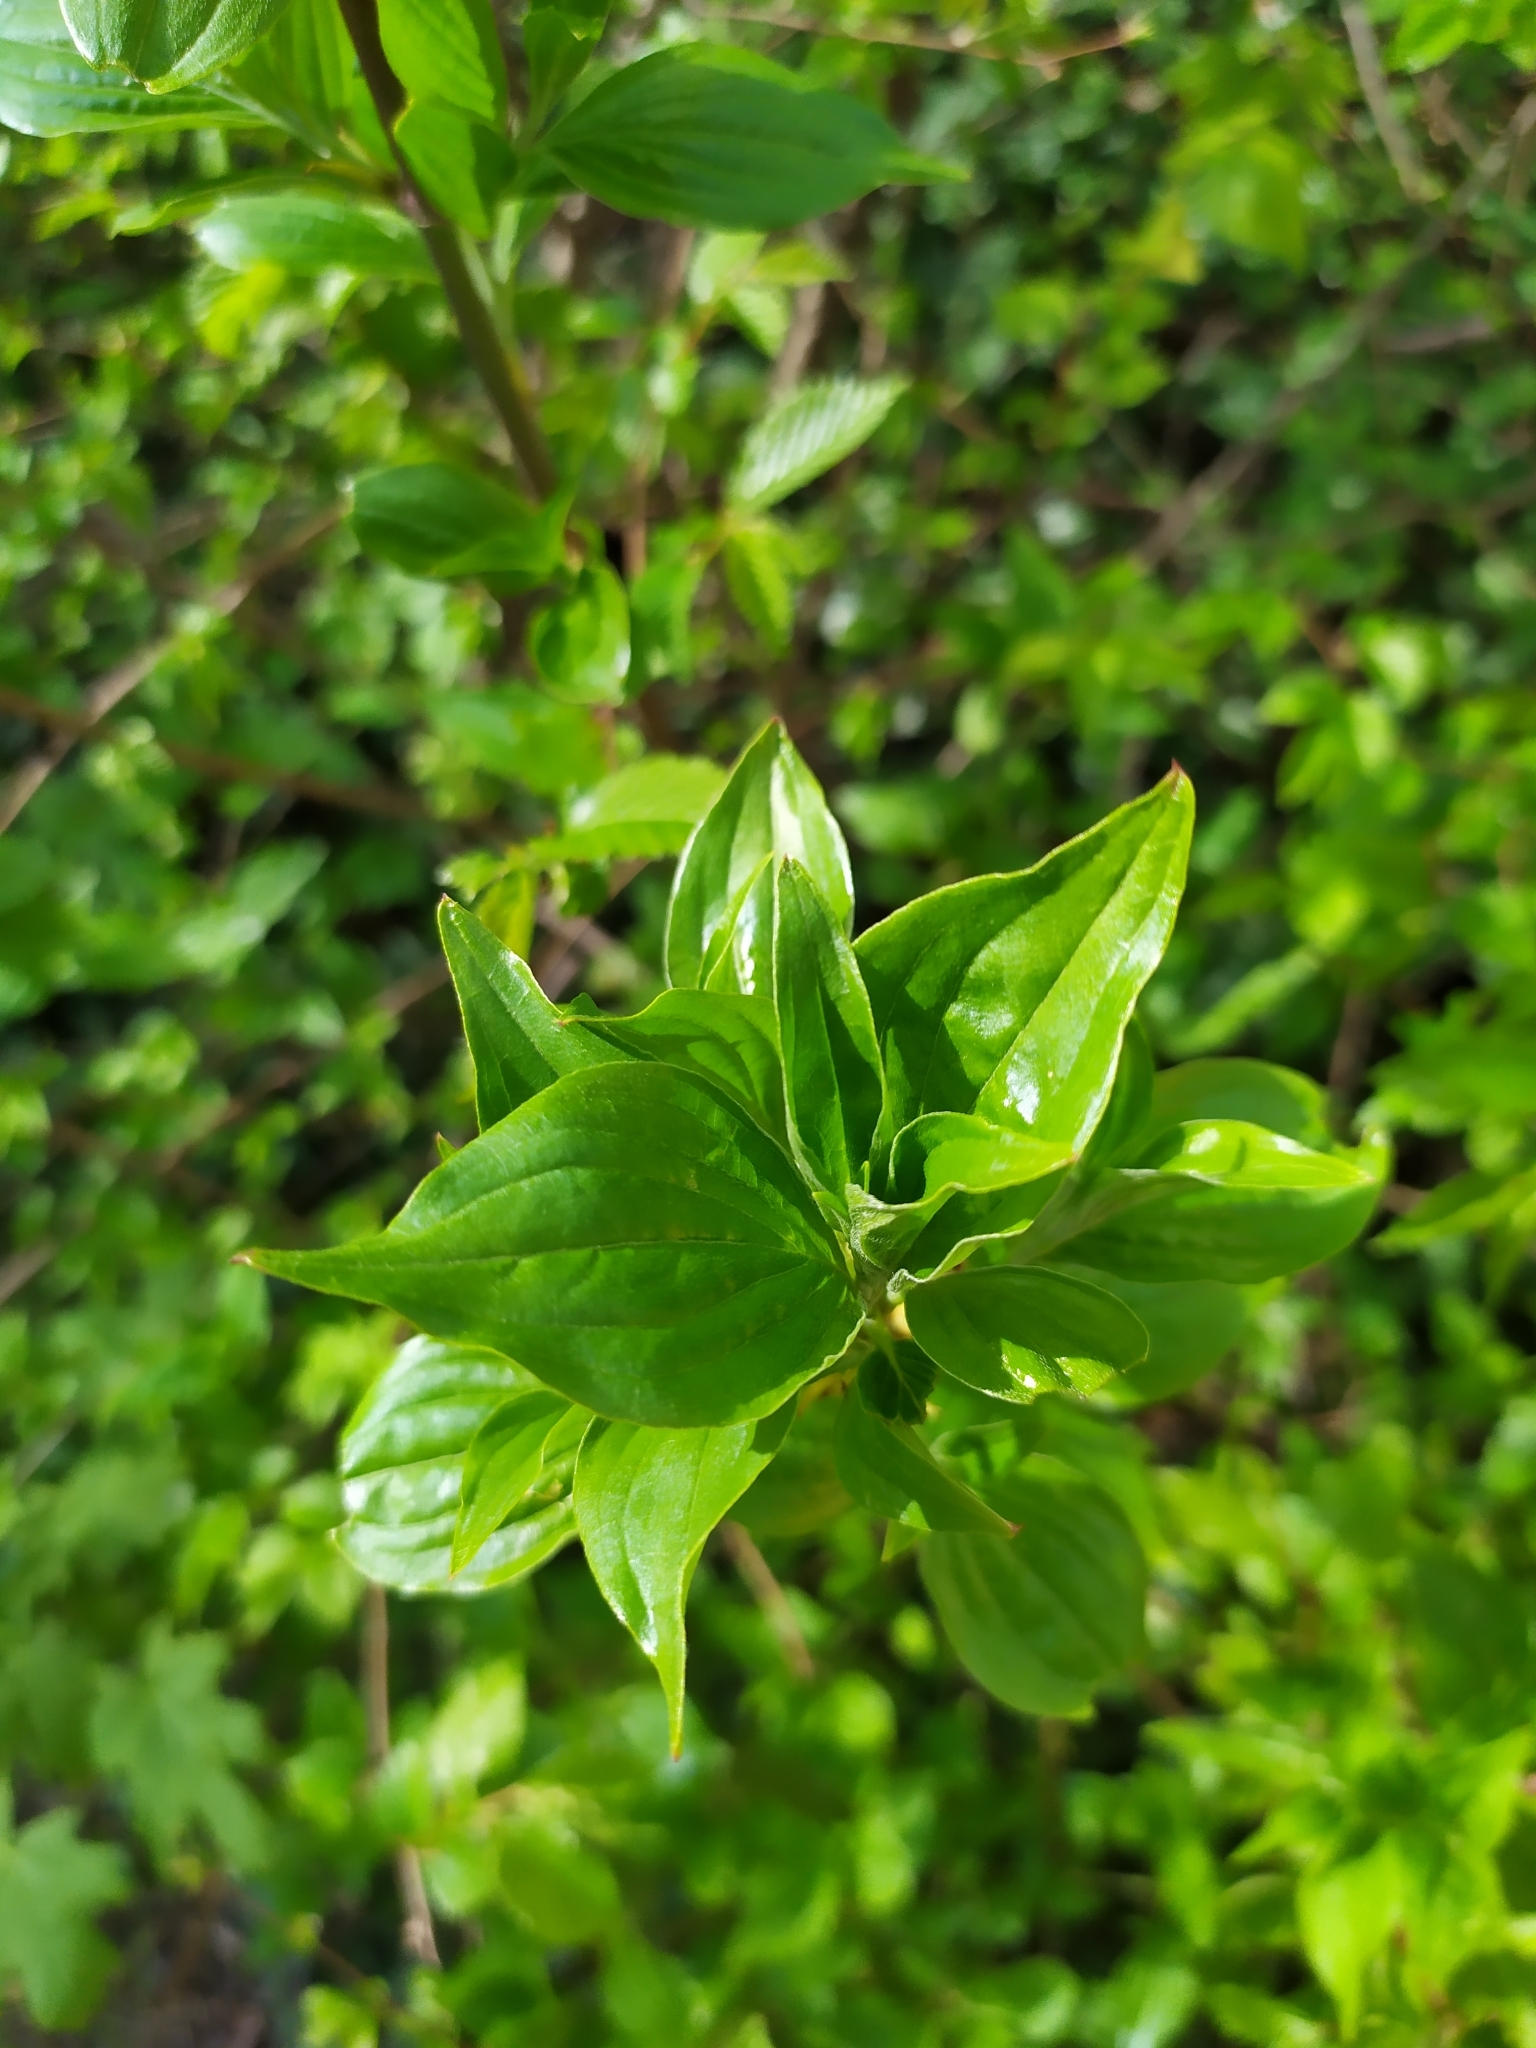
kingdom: Plantae
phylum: Tracheophyta
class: Magnoliopsida
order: Cornales
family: Cornaceae
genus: Cornus
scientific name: Cornus mas
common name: Cornelian-cherry
